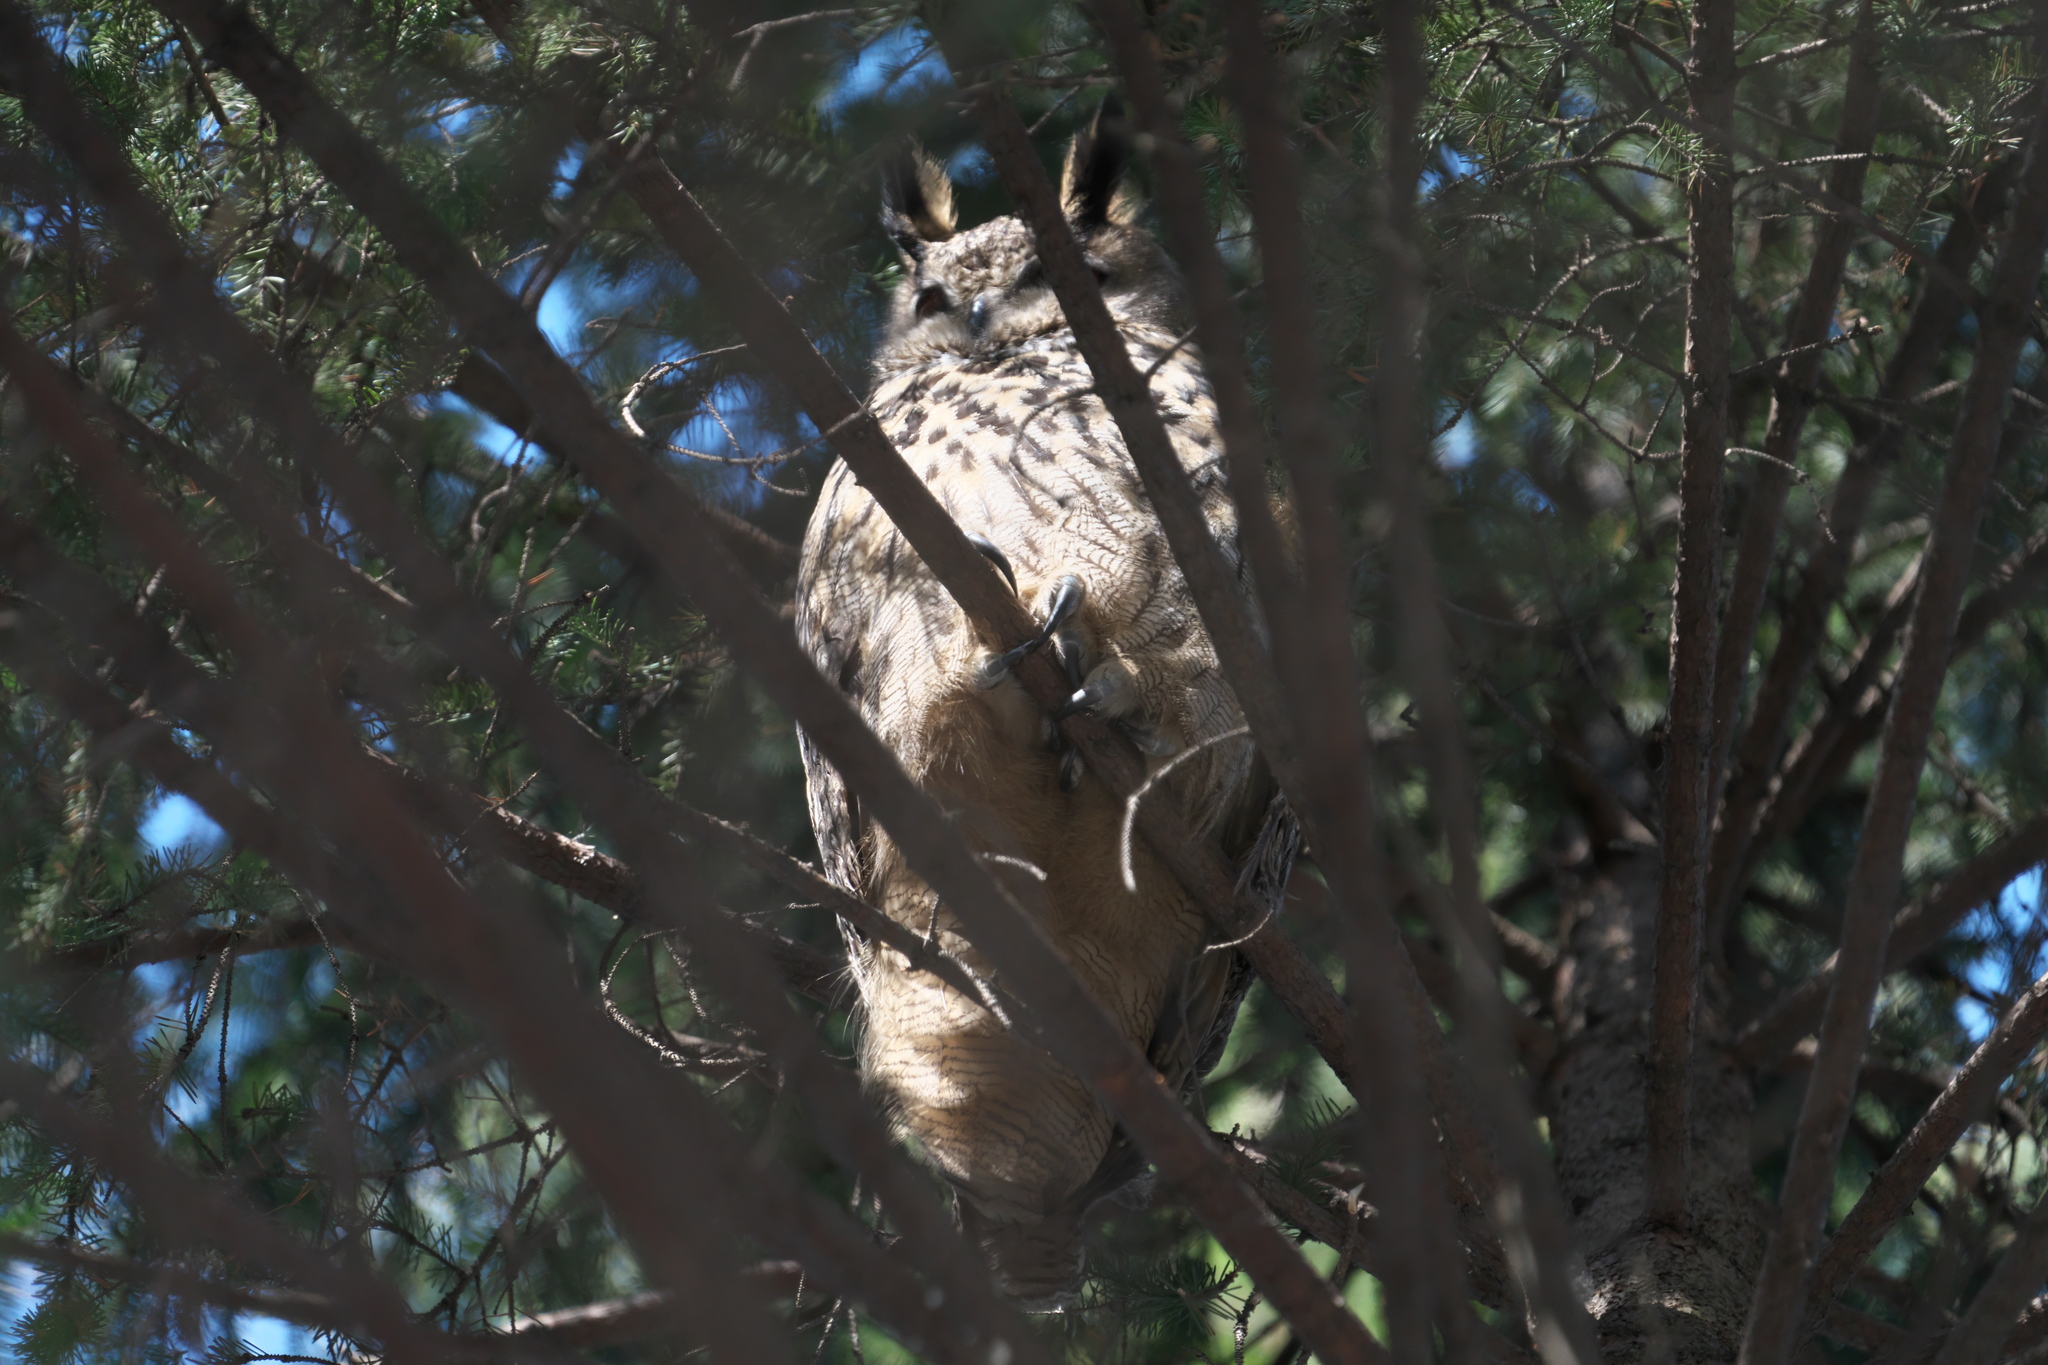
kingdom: Animalia
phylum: Chordata
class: Aves
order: Strigiformes
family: Strigidae
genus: Bubo
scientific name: Bubo bubo
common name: Eurasian eagle-owl
